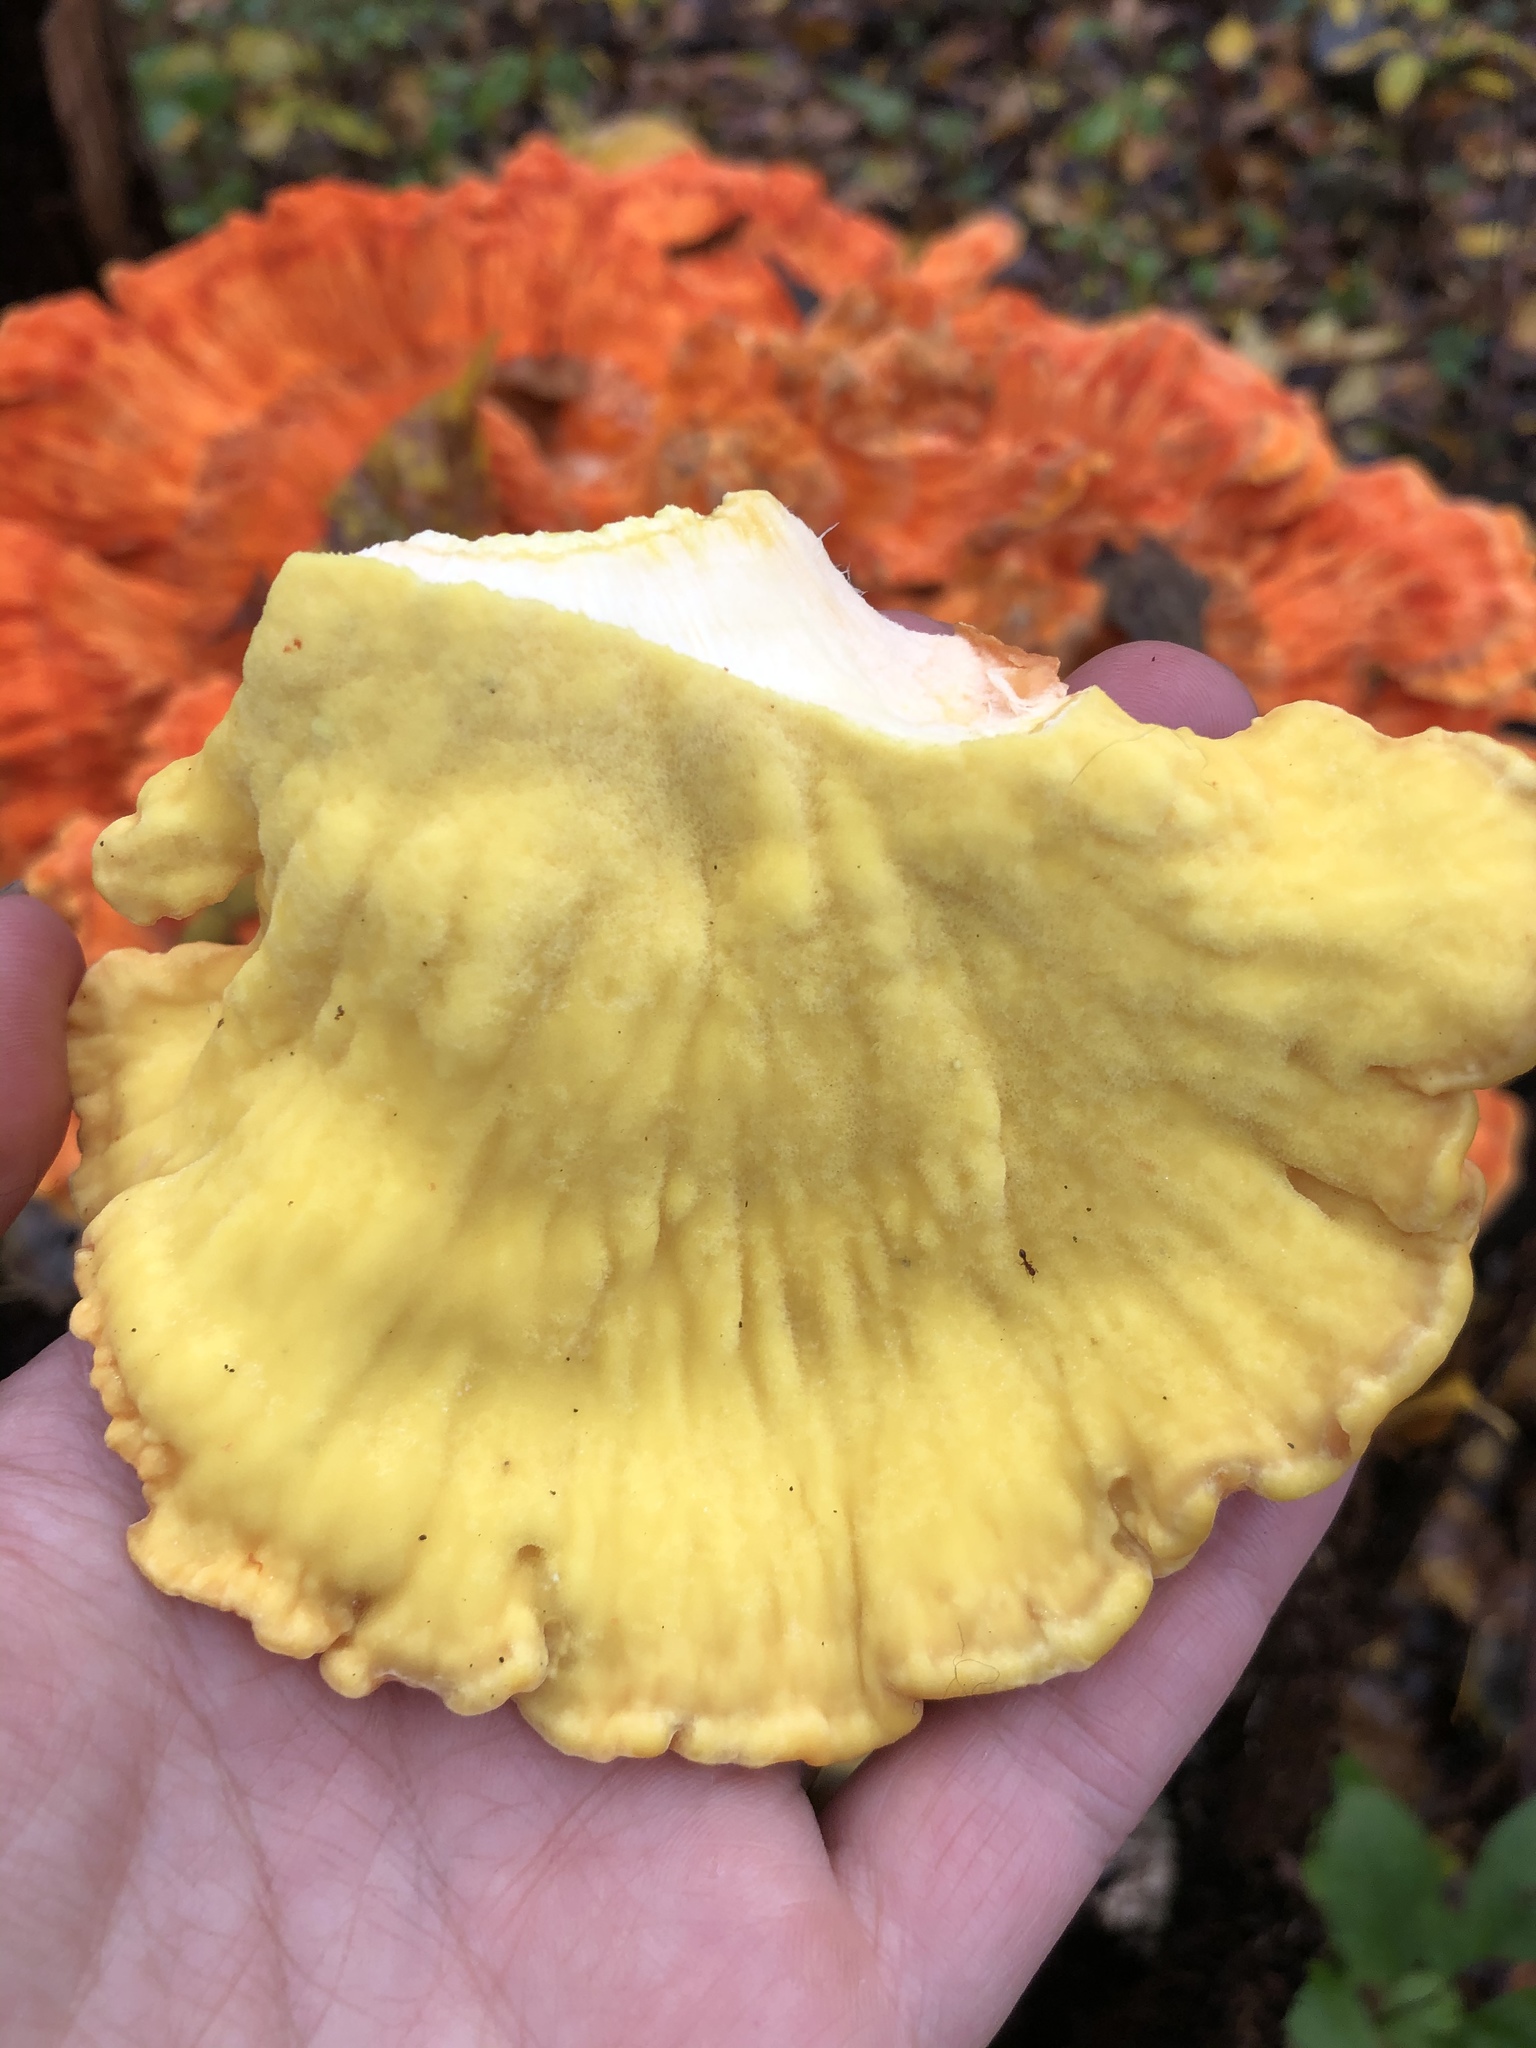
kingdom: Fungi
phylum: Basidiomycota
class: Agaricomycetes
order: Polyporales
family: Laetiporaceae
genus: Laetiporus
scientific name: Laetiporus sulphureus
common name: Chicken of the woods
